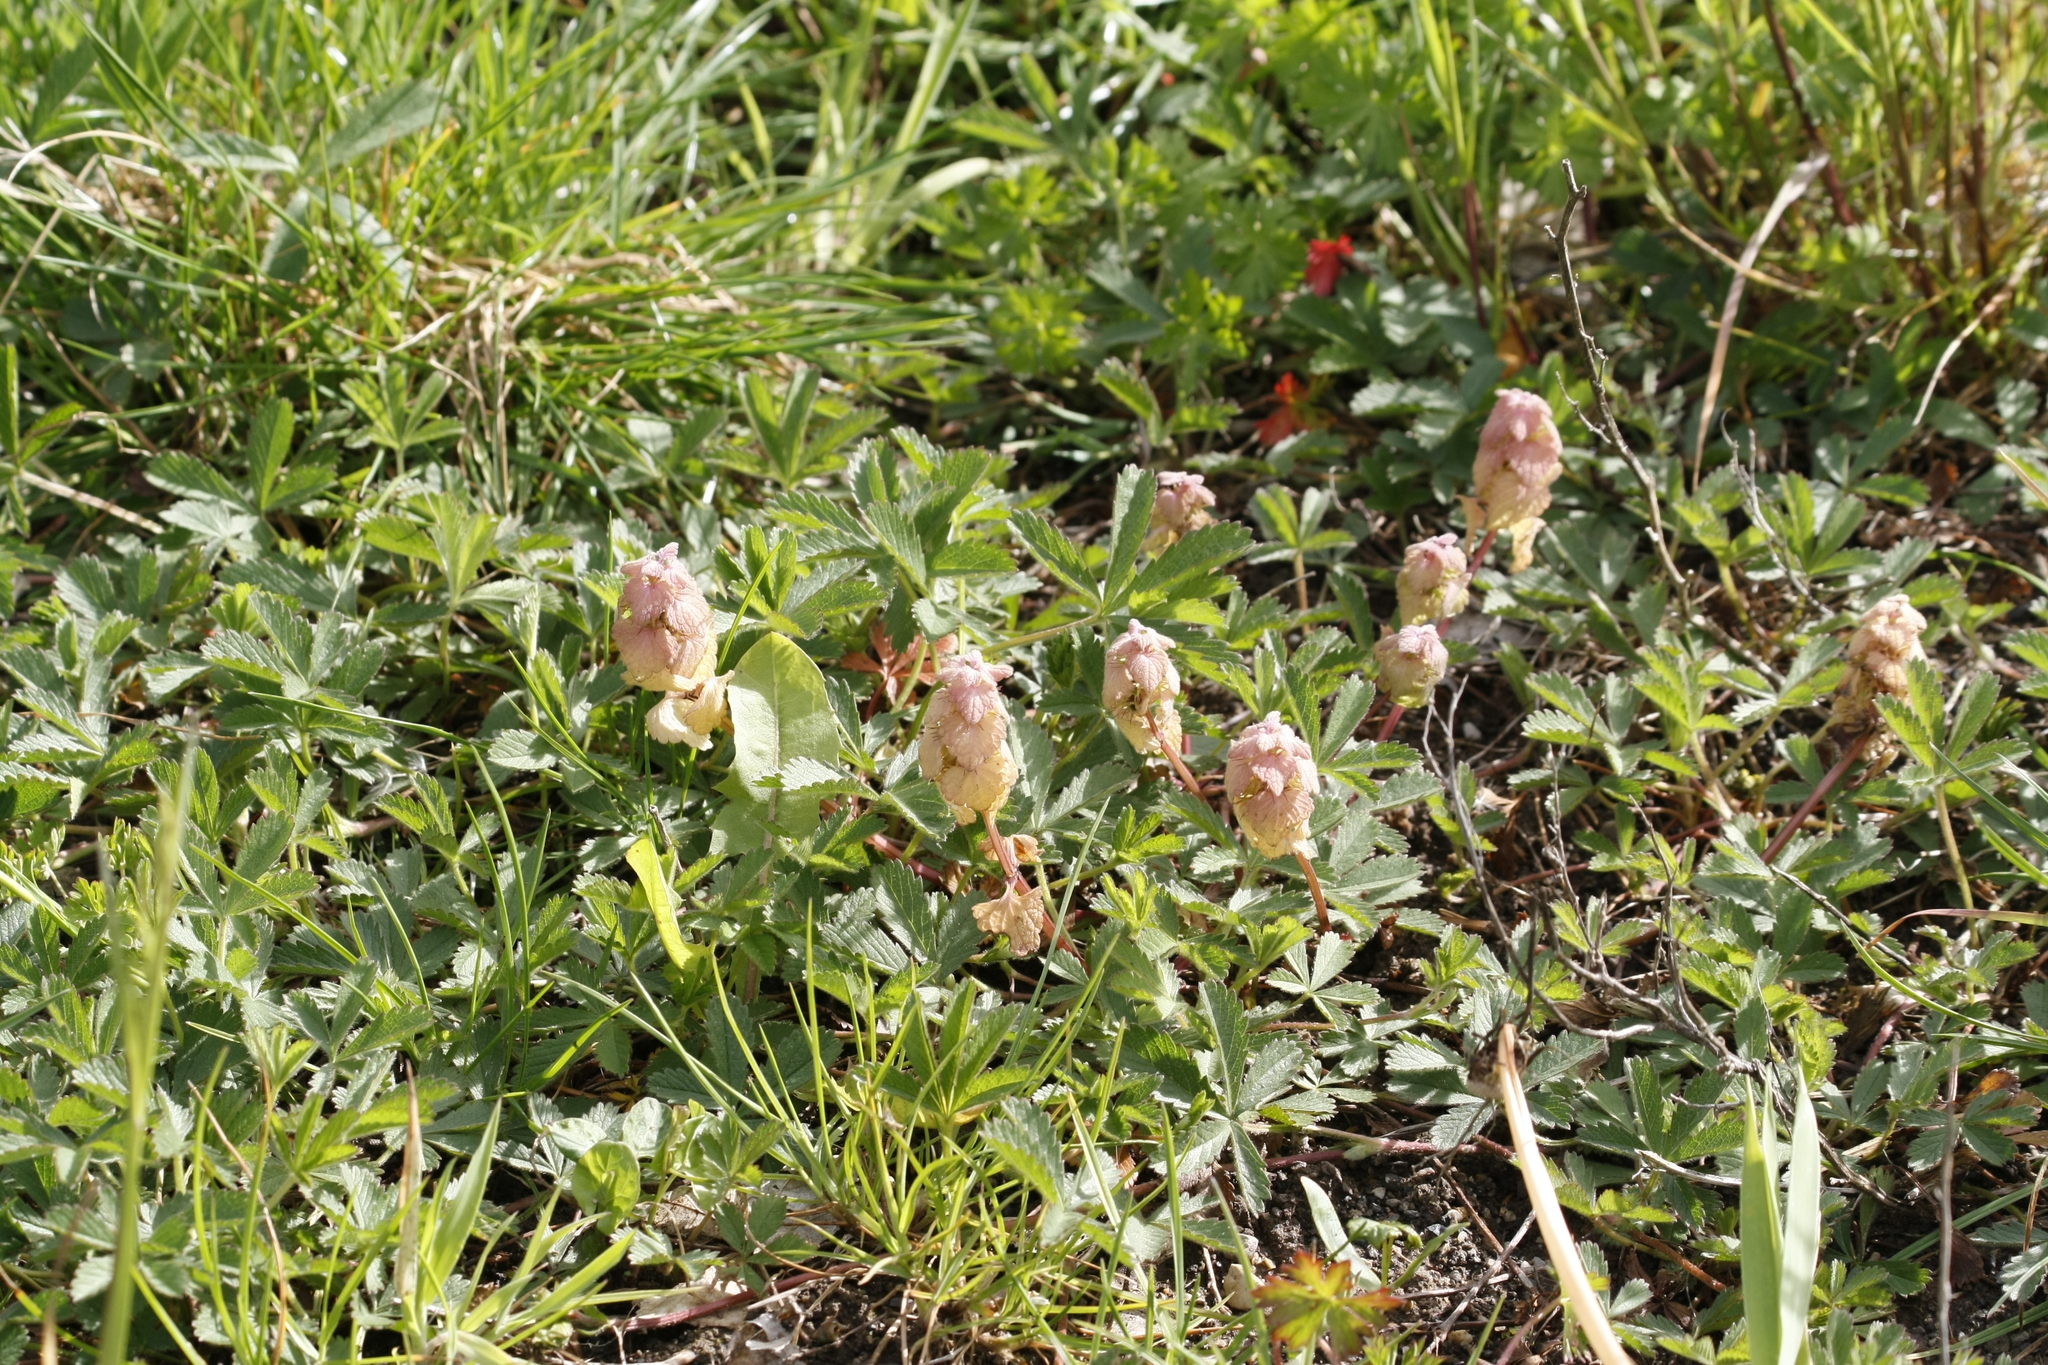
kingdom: Plantae
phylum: Tracheophyta
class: Magnoliopsida
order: Lamiales
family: Lamiaceae
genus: Lamium
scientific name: Lamium purpureum
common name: Red dead-nettle
